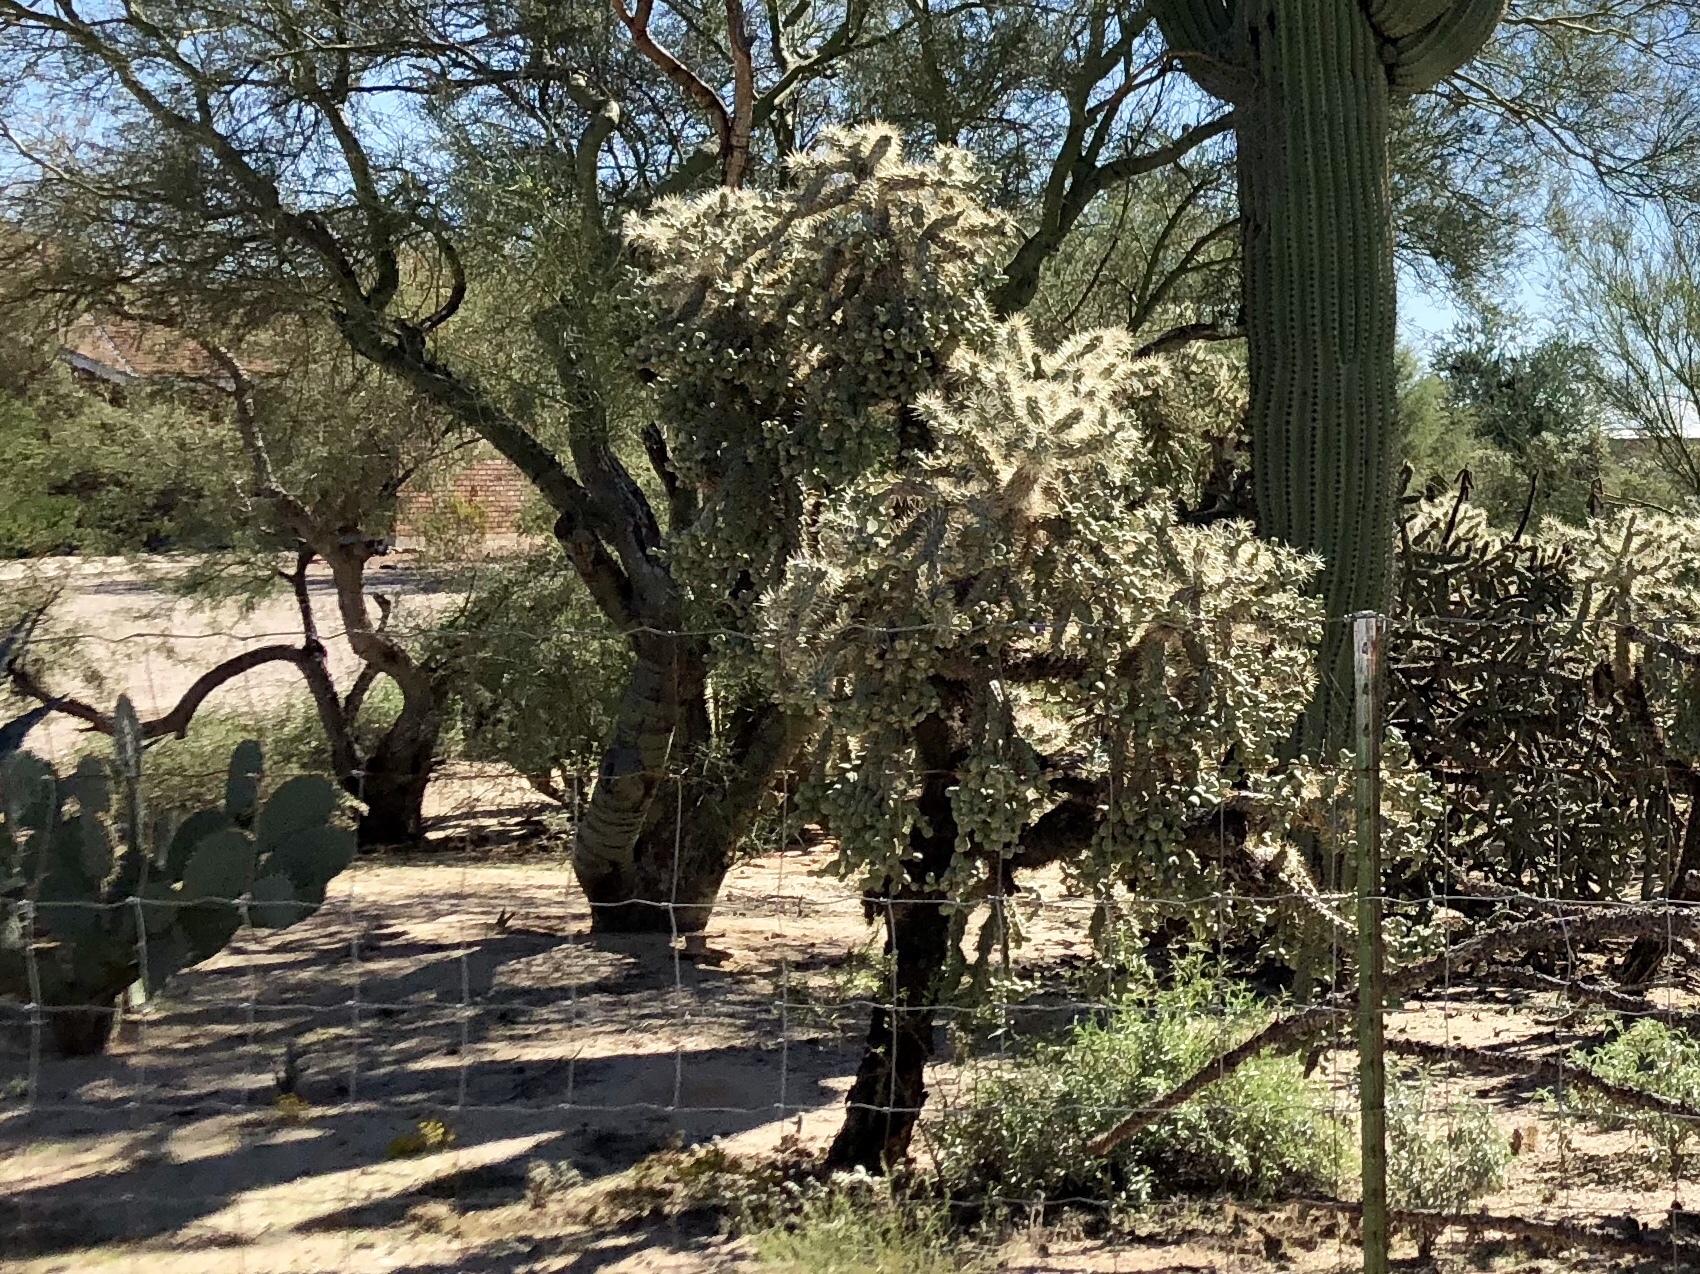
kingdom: Plantae
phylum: Tracheophyta
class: Magnoliopsida
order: Caryophyllales
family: Cactaceae
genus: Cylindropuntia
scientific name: Cylindropuntia fulgida
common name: Jumping cholla
